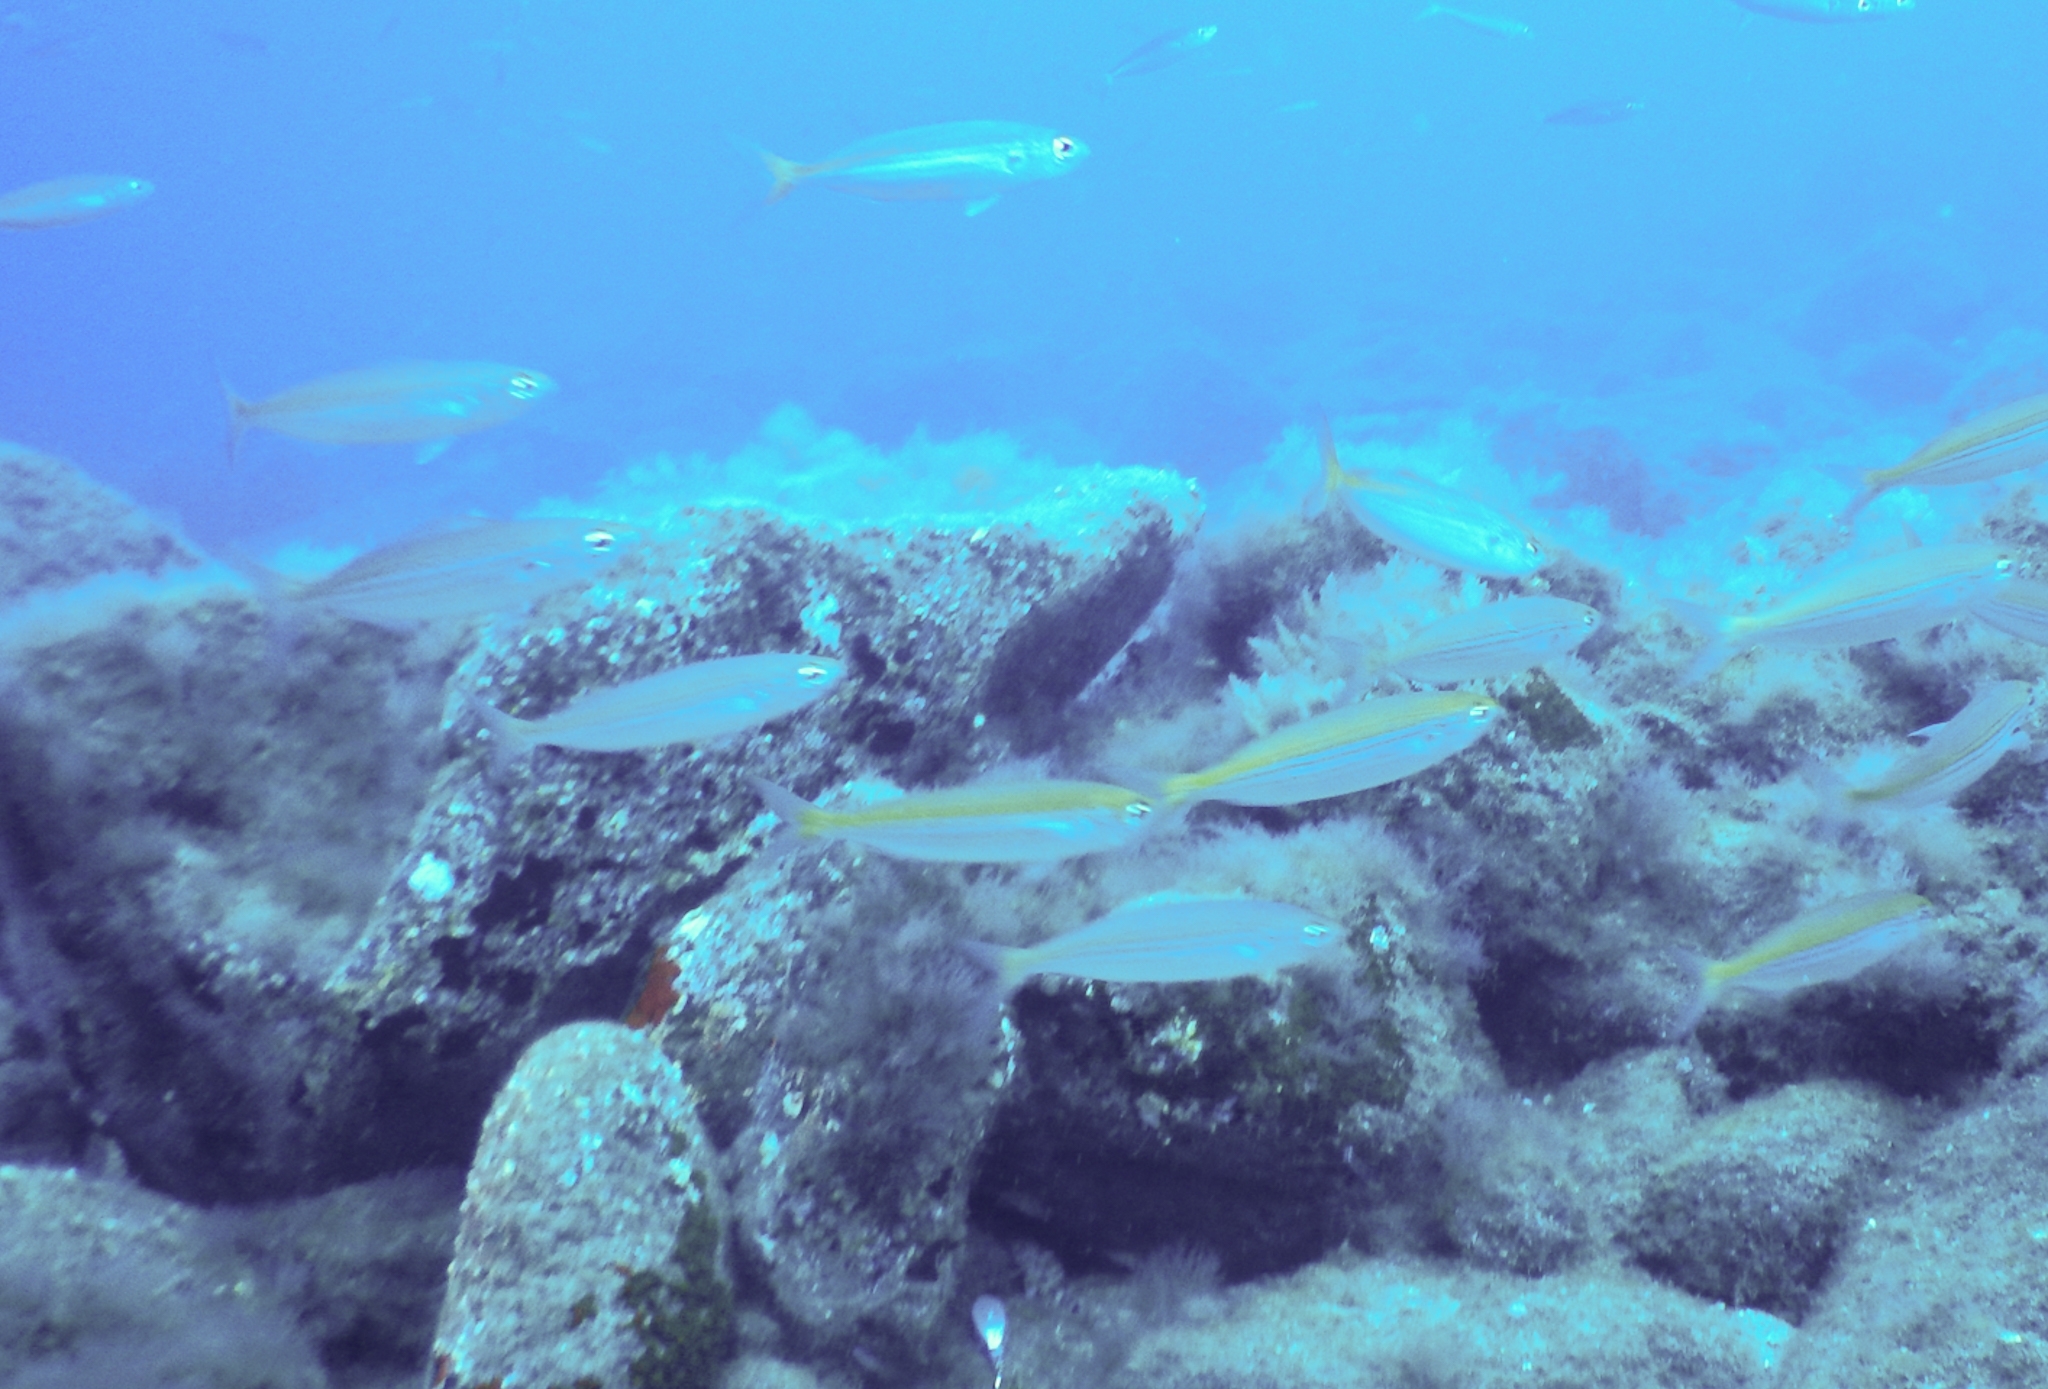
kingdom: Animalia
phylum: Chordata
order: Perciformes
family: Sparidae
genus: Boops
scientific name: Boops boops
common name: Bogue
